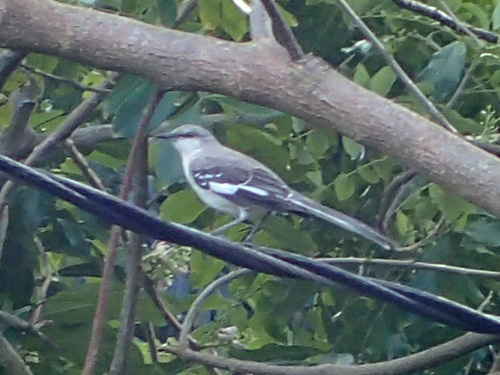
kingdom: Animalia
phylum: Chordata
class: Aves
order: Passeriformes
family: Mimidae
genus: Mimus
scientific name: Mimus polyglottos
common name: Northern mockingbird
